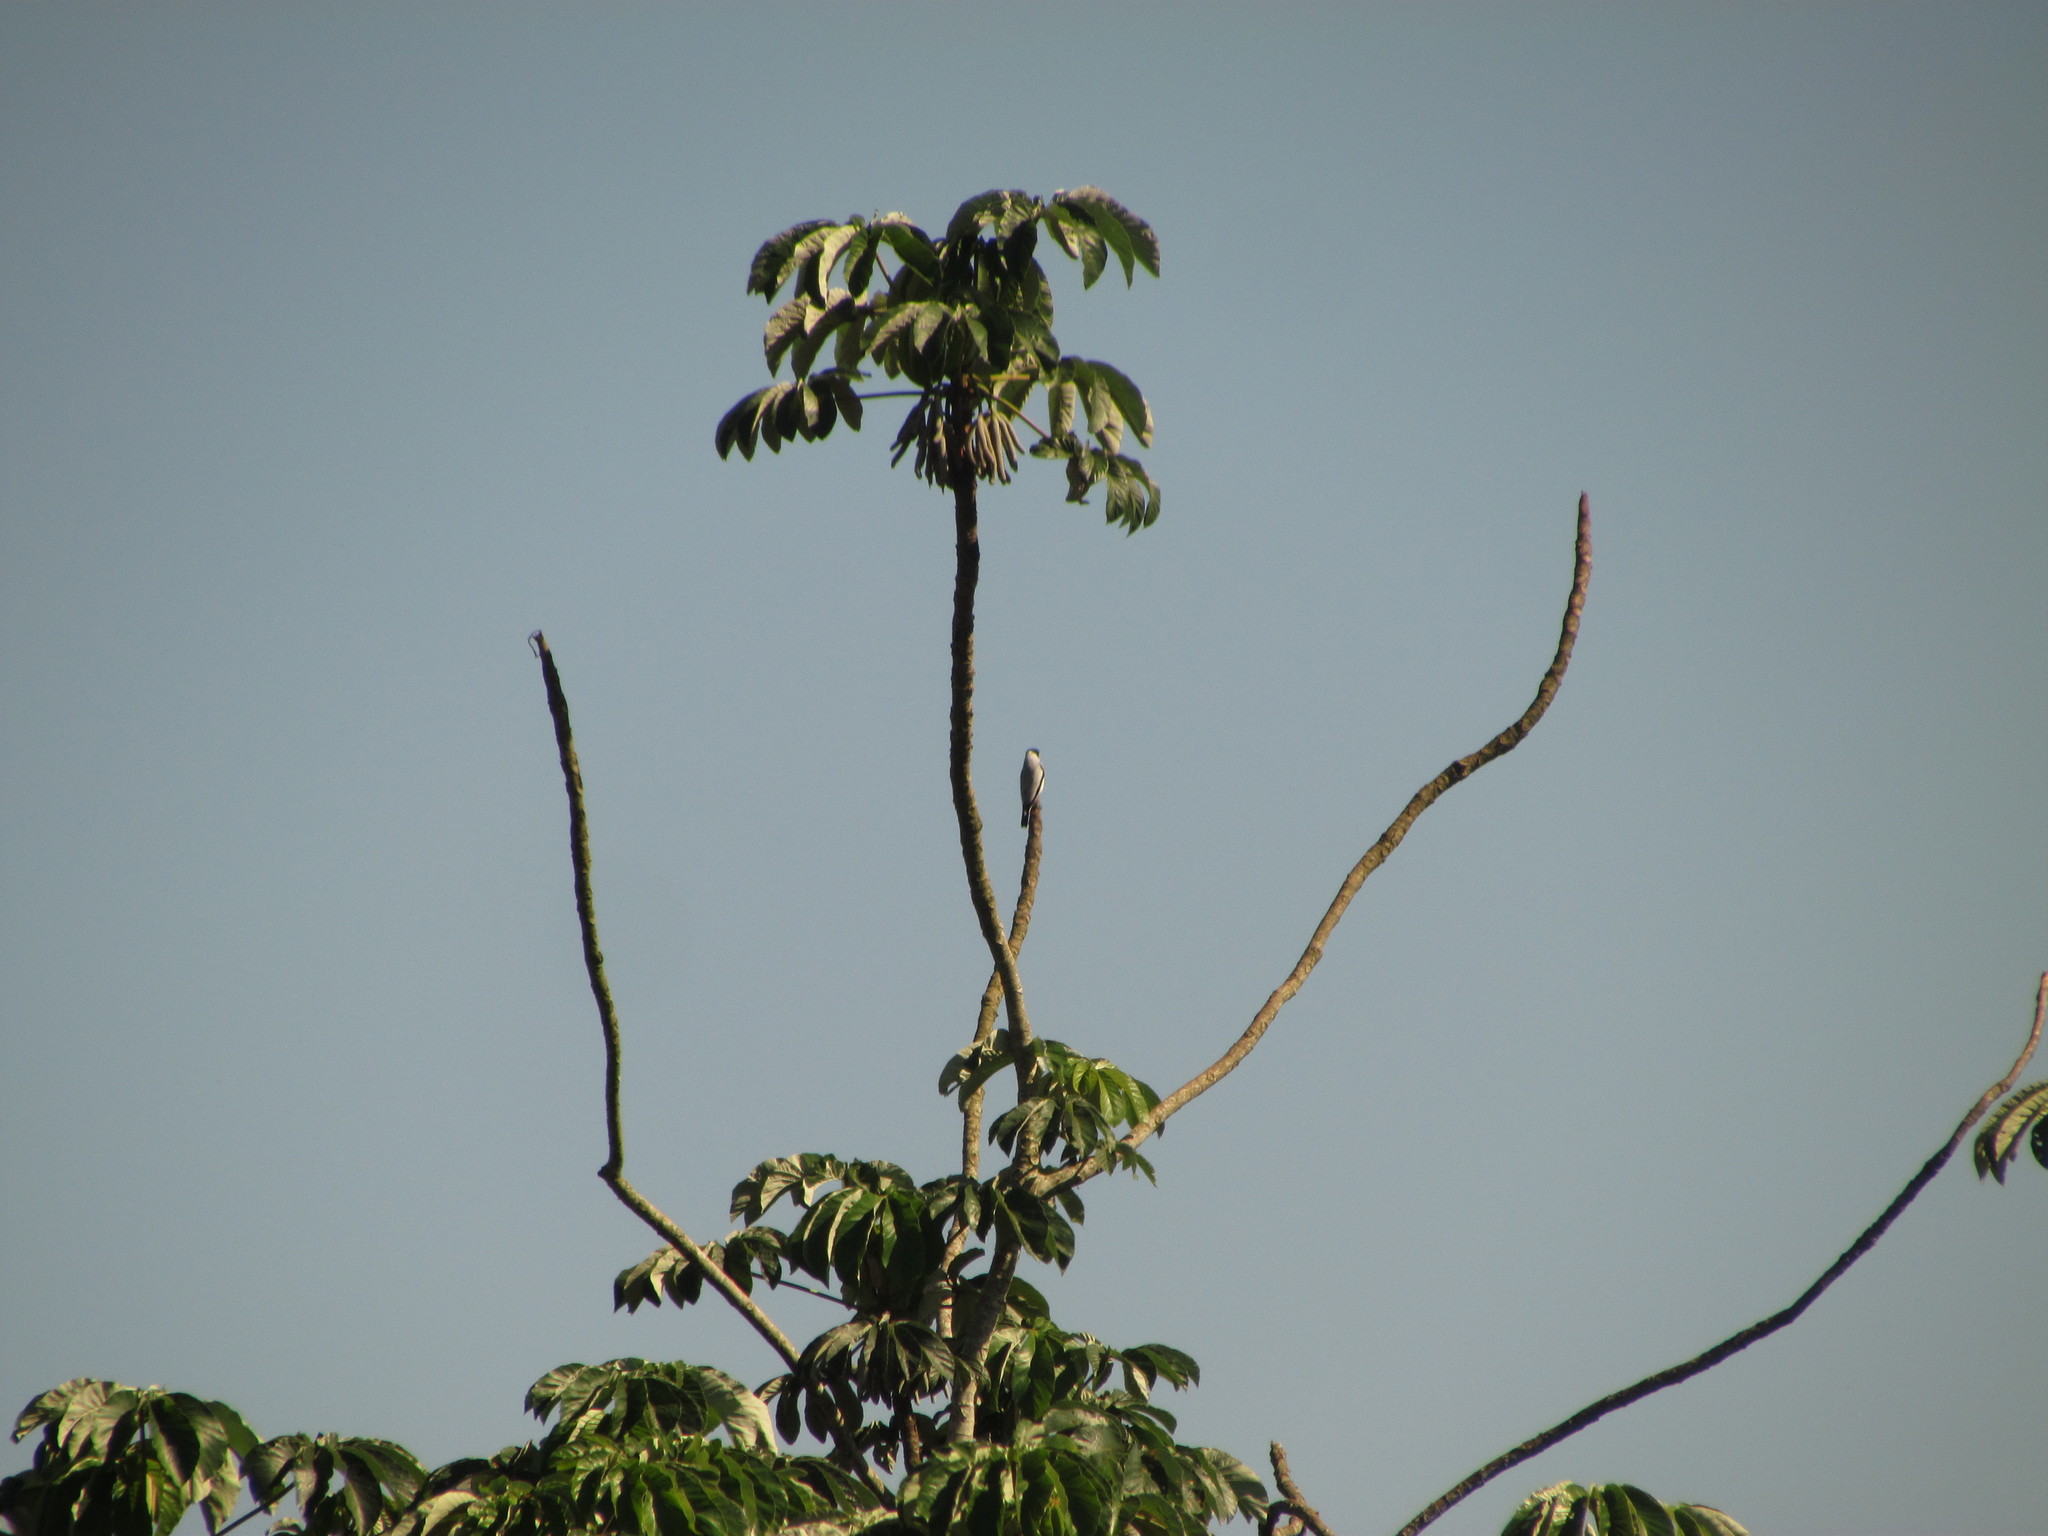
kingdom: Animalia
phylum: Chordata
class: Aves
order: Passeriformes
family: Cotingidae
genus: Tityra
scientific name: Tityra semifasciata
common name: Masked tityra
